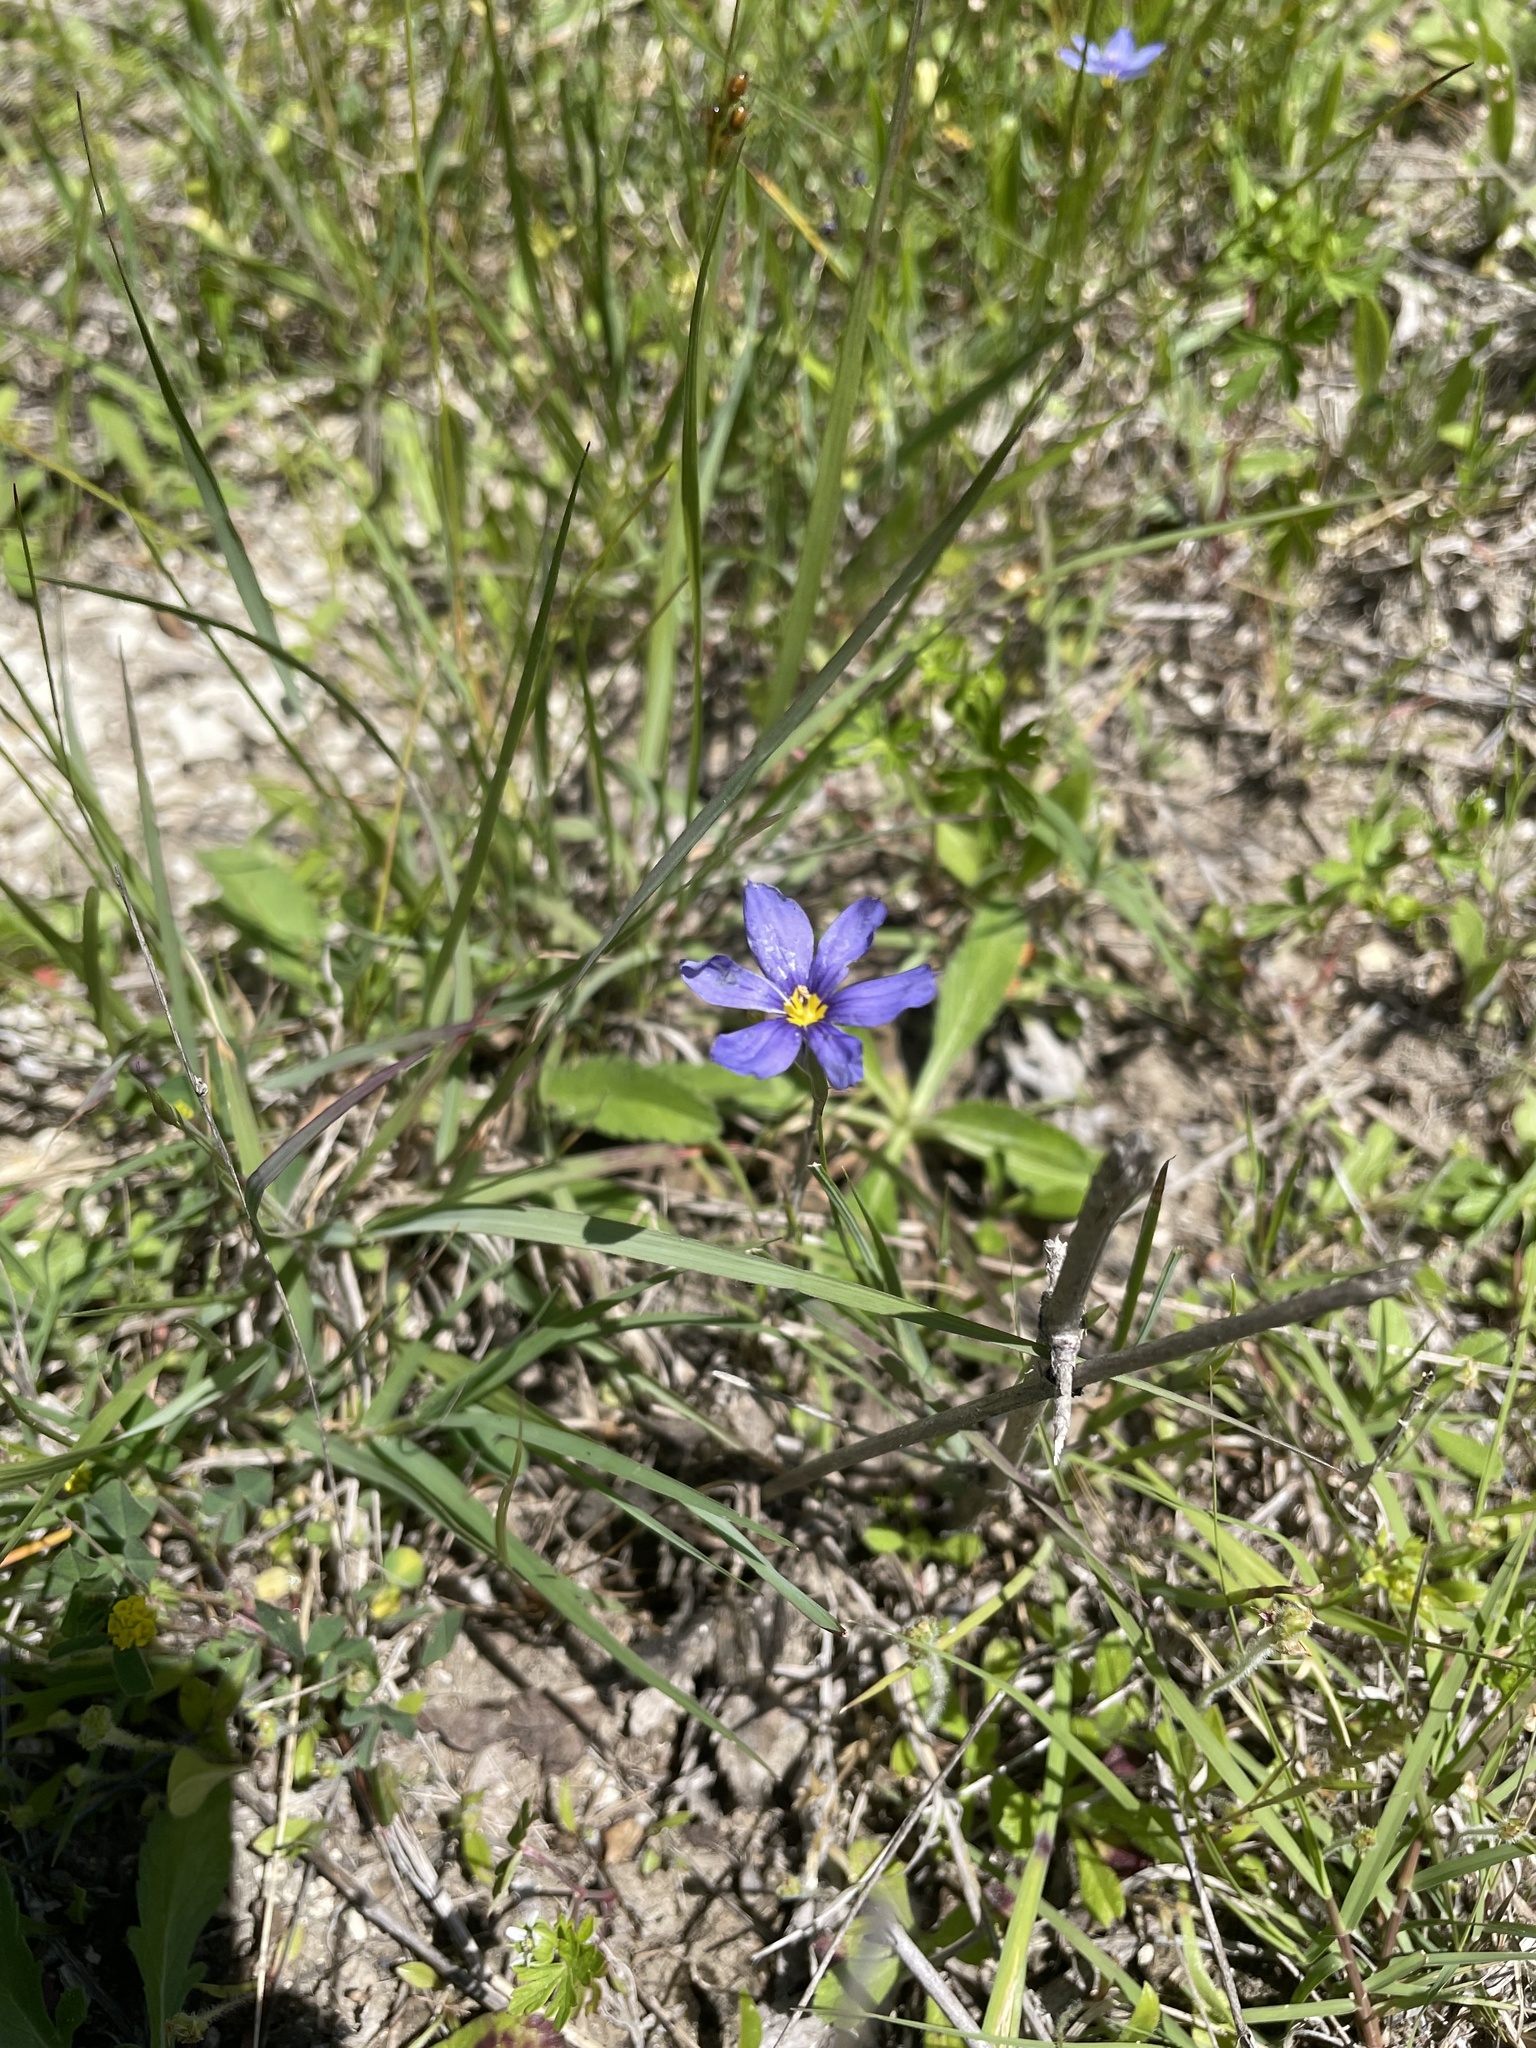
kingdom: Plantae
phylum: Tracheophyta
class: Liliopsida
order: Asparagales
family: Iridaceae
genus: Sisyrinchium
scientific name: Sisyrinchium pruinosum
